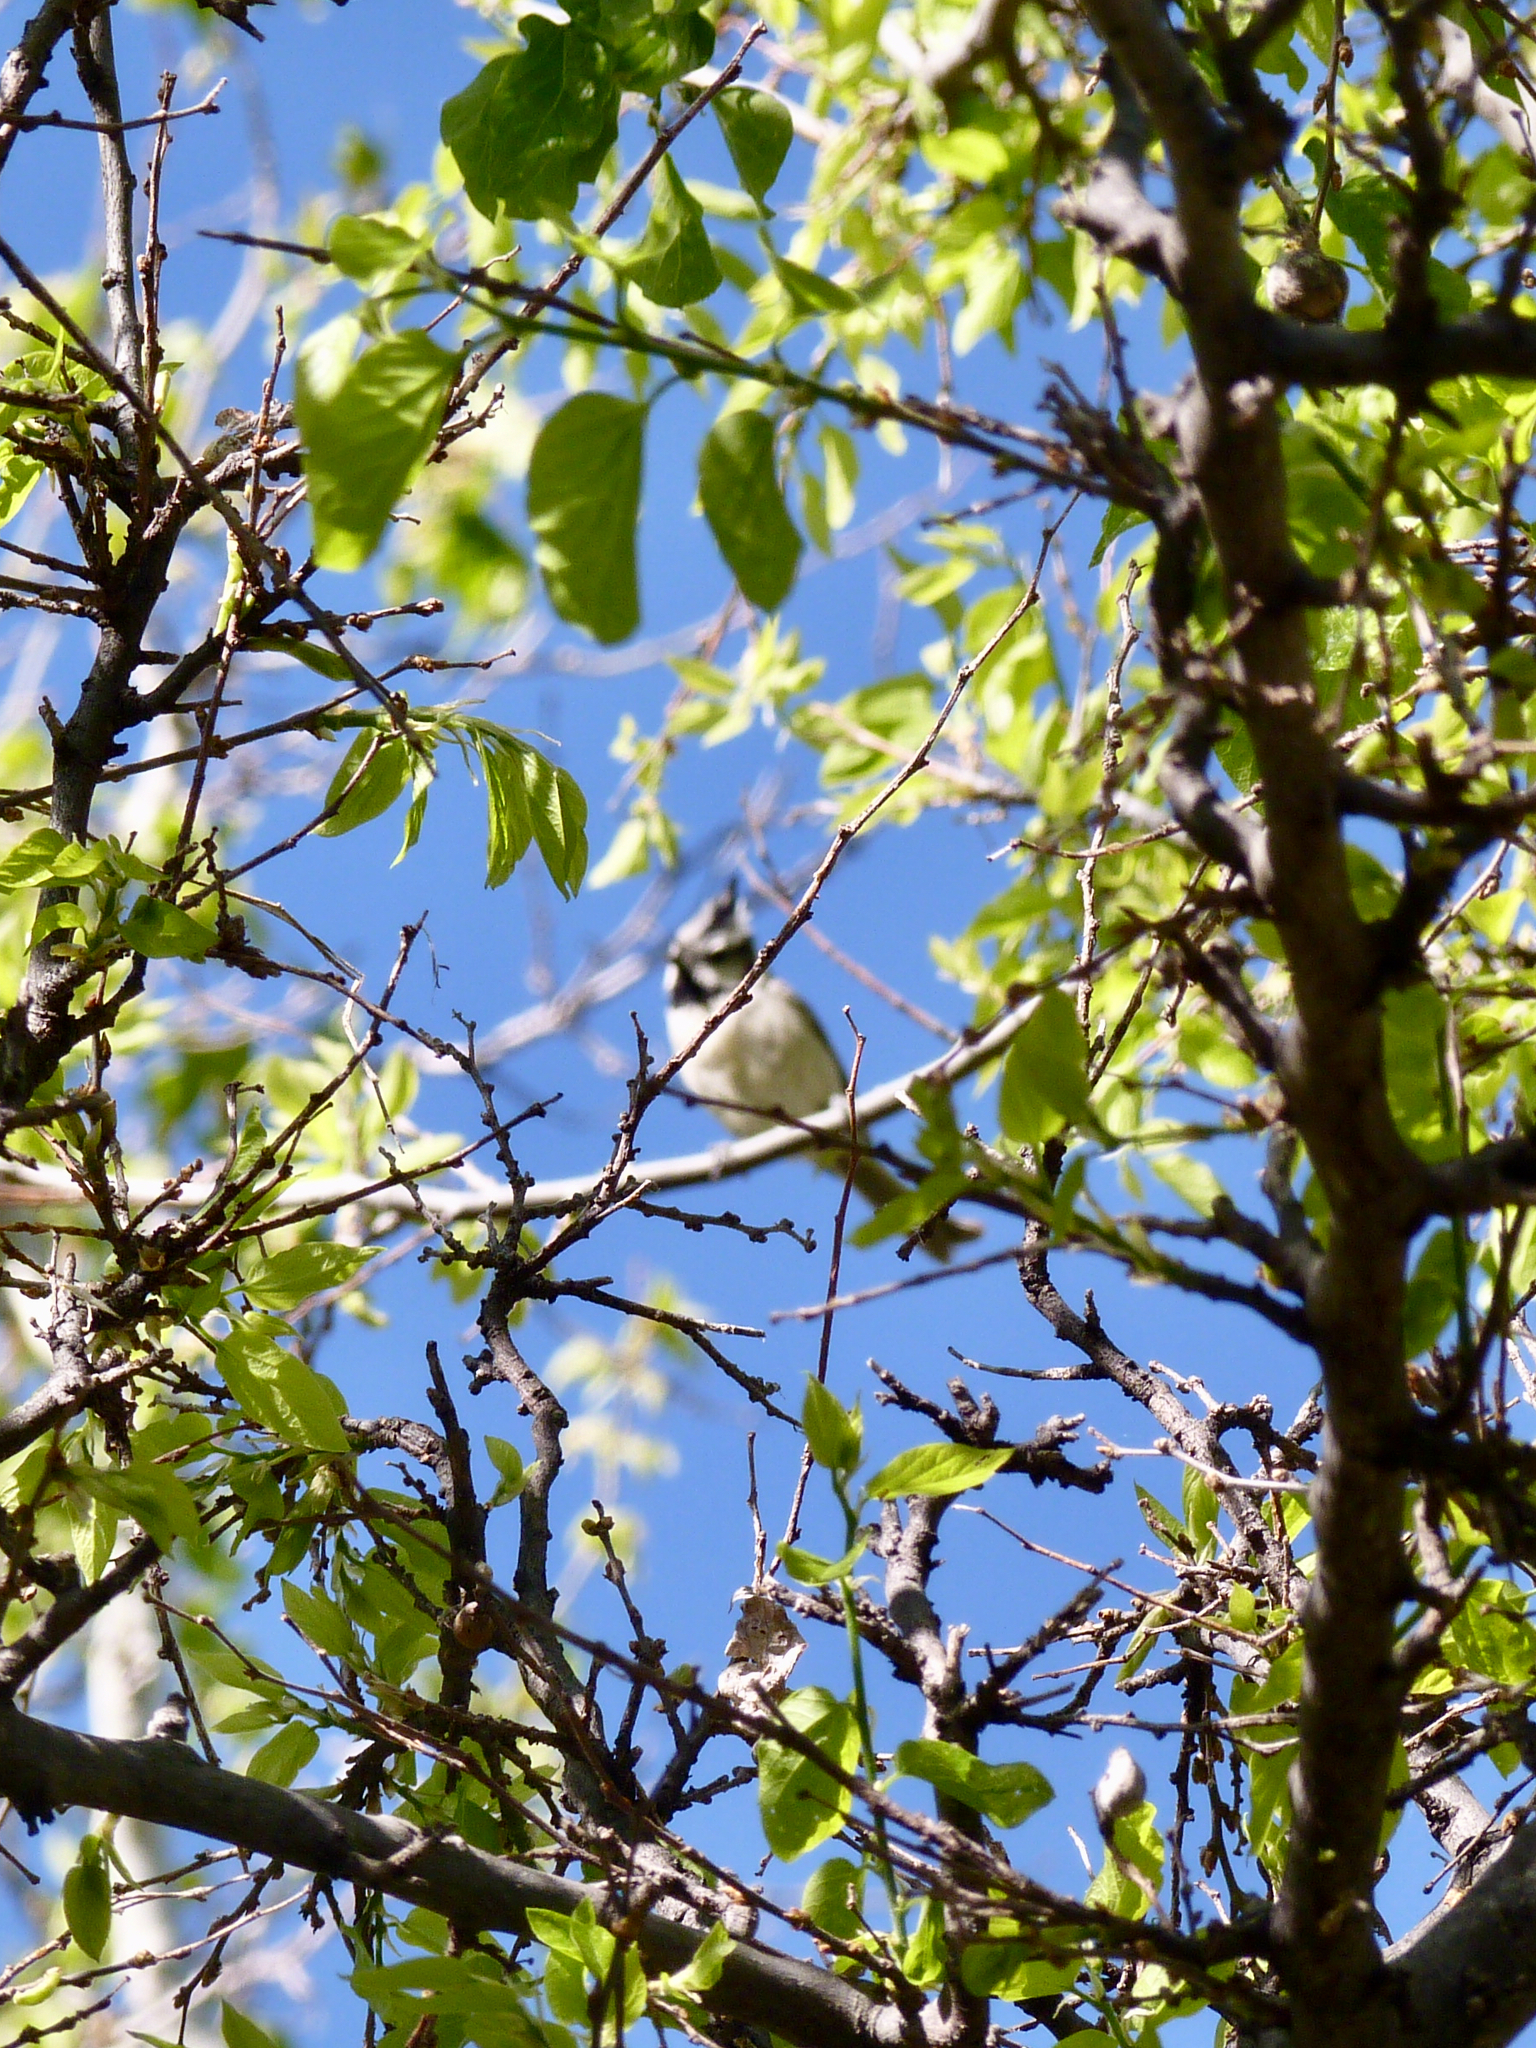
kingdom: Animalia
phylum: Chordata
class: Aves
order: Passeriformes
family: Paridae
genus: Baeolophus
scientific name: Baeolophus wollweberi
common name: Bridled titmouse
